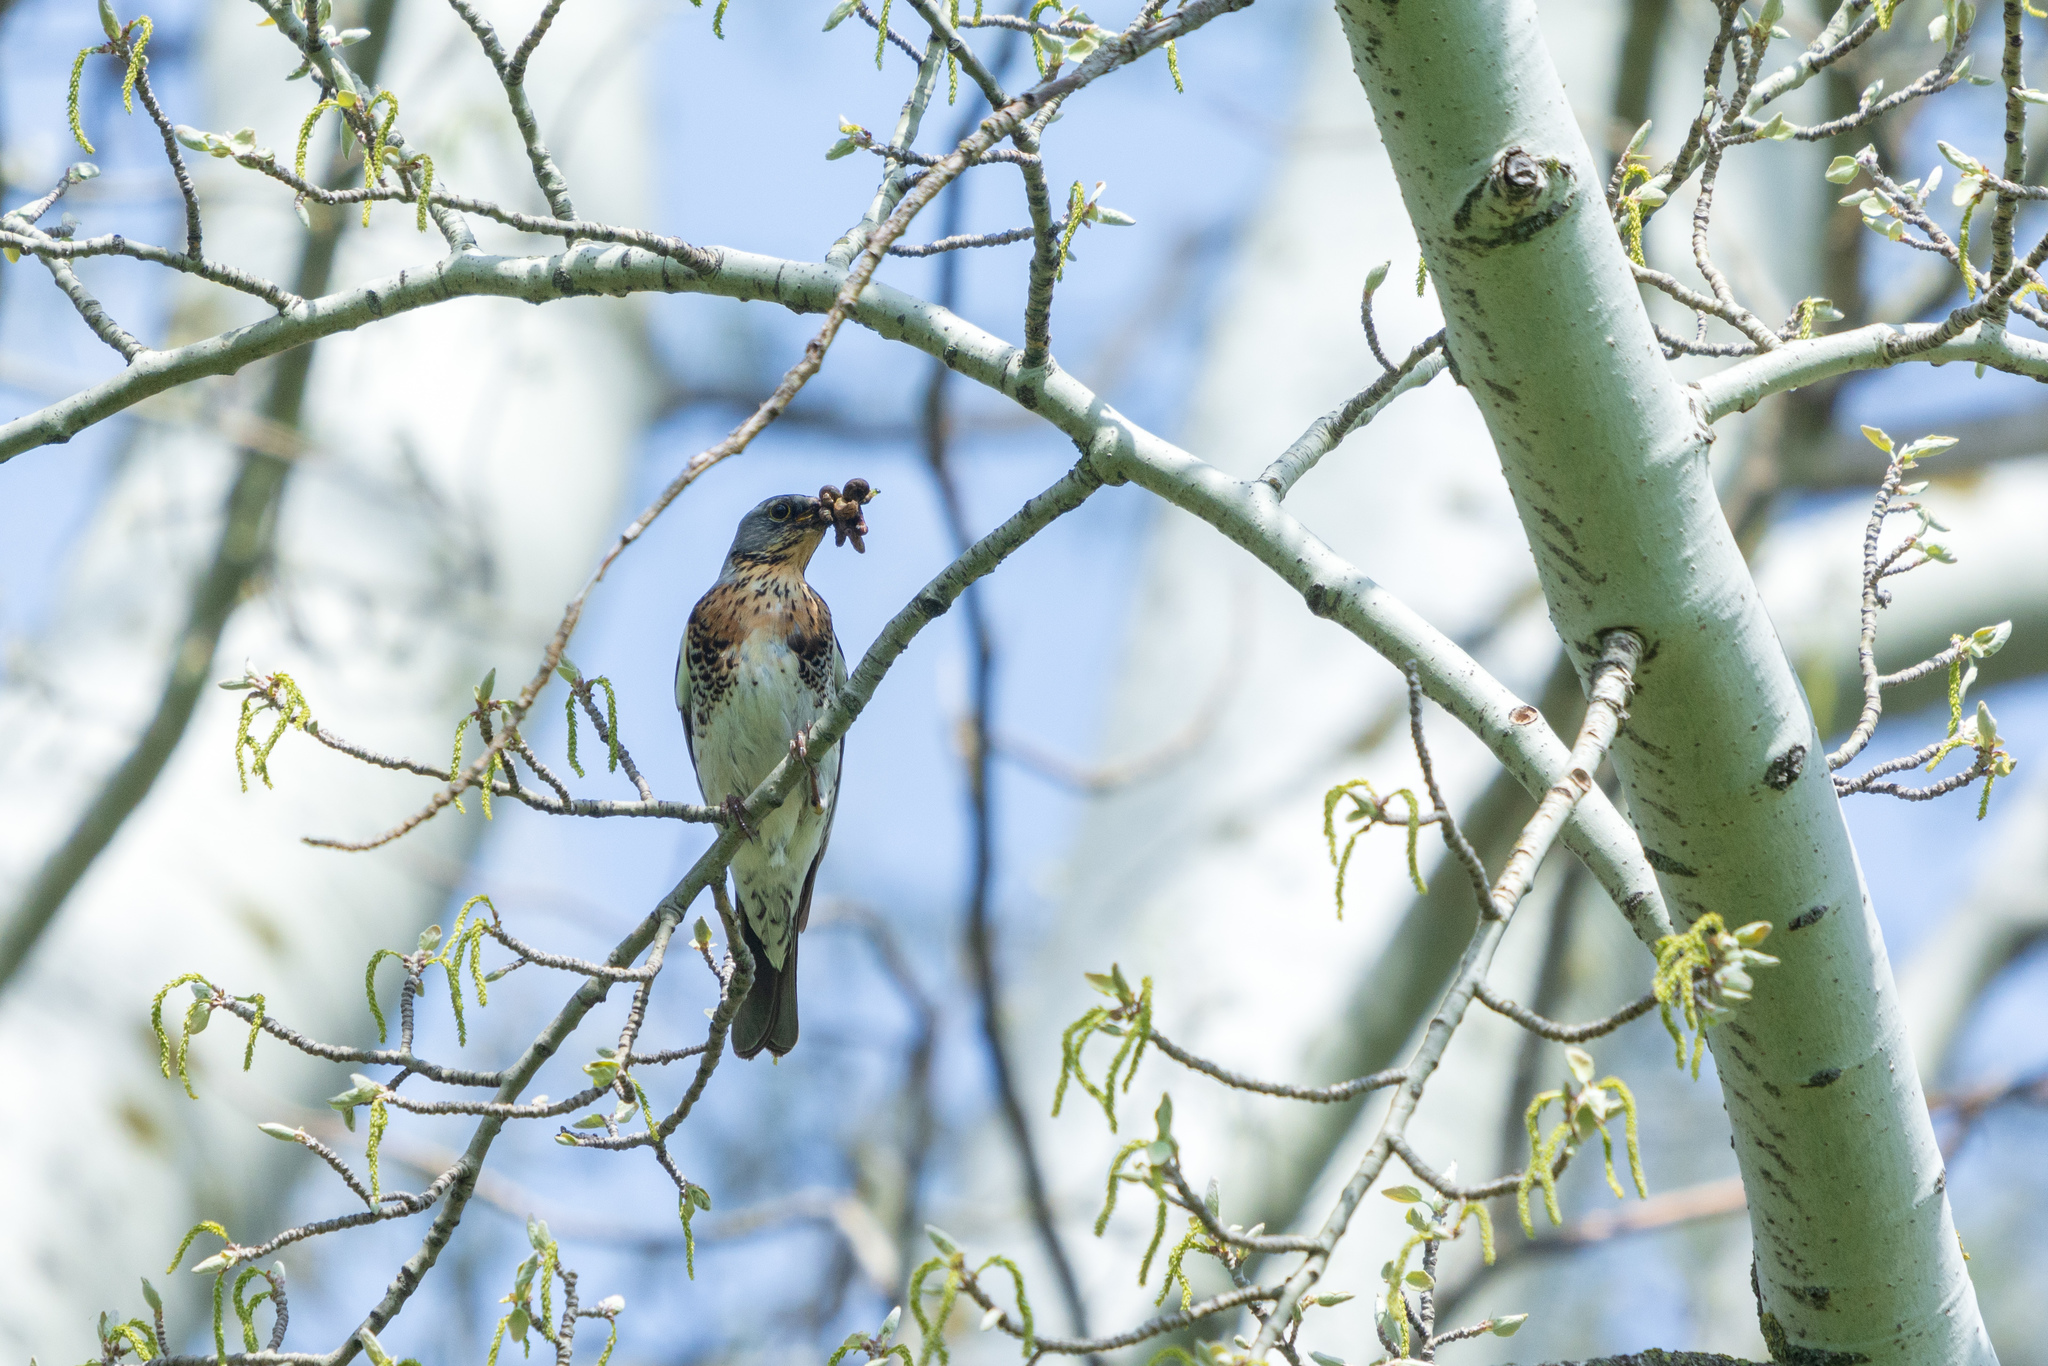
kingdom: Animalia
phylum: Chordata
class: Aves
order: Passeriformes
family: Turdidae
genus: Turdus
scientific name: Turdus pilaris
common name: Fieldfare
